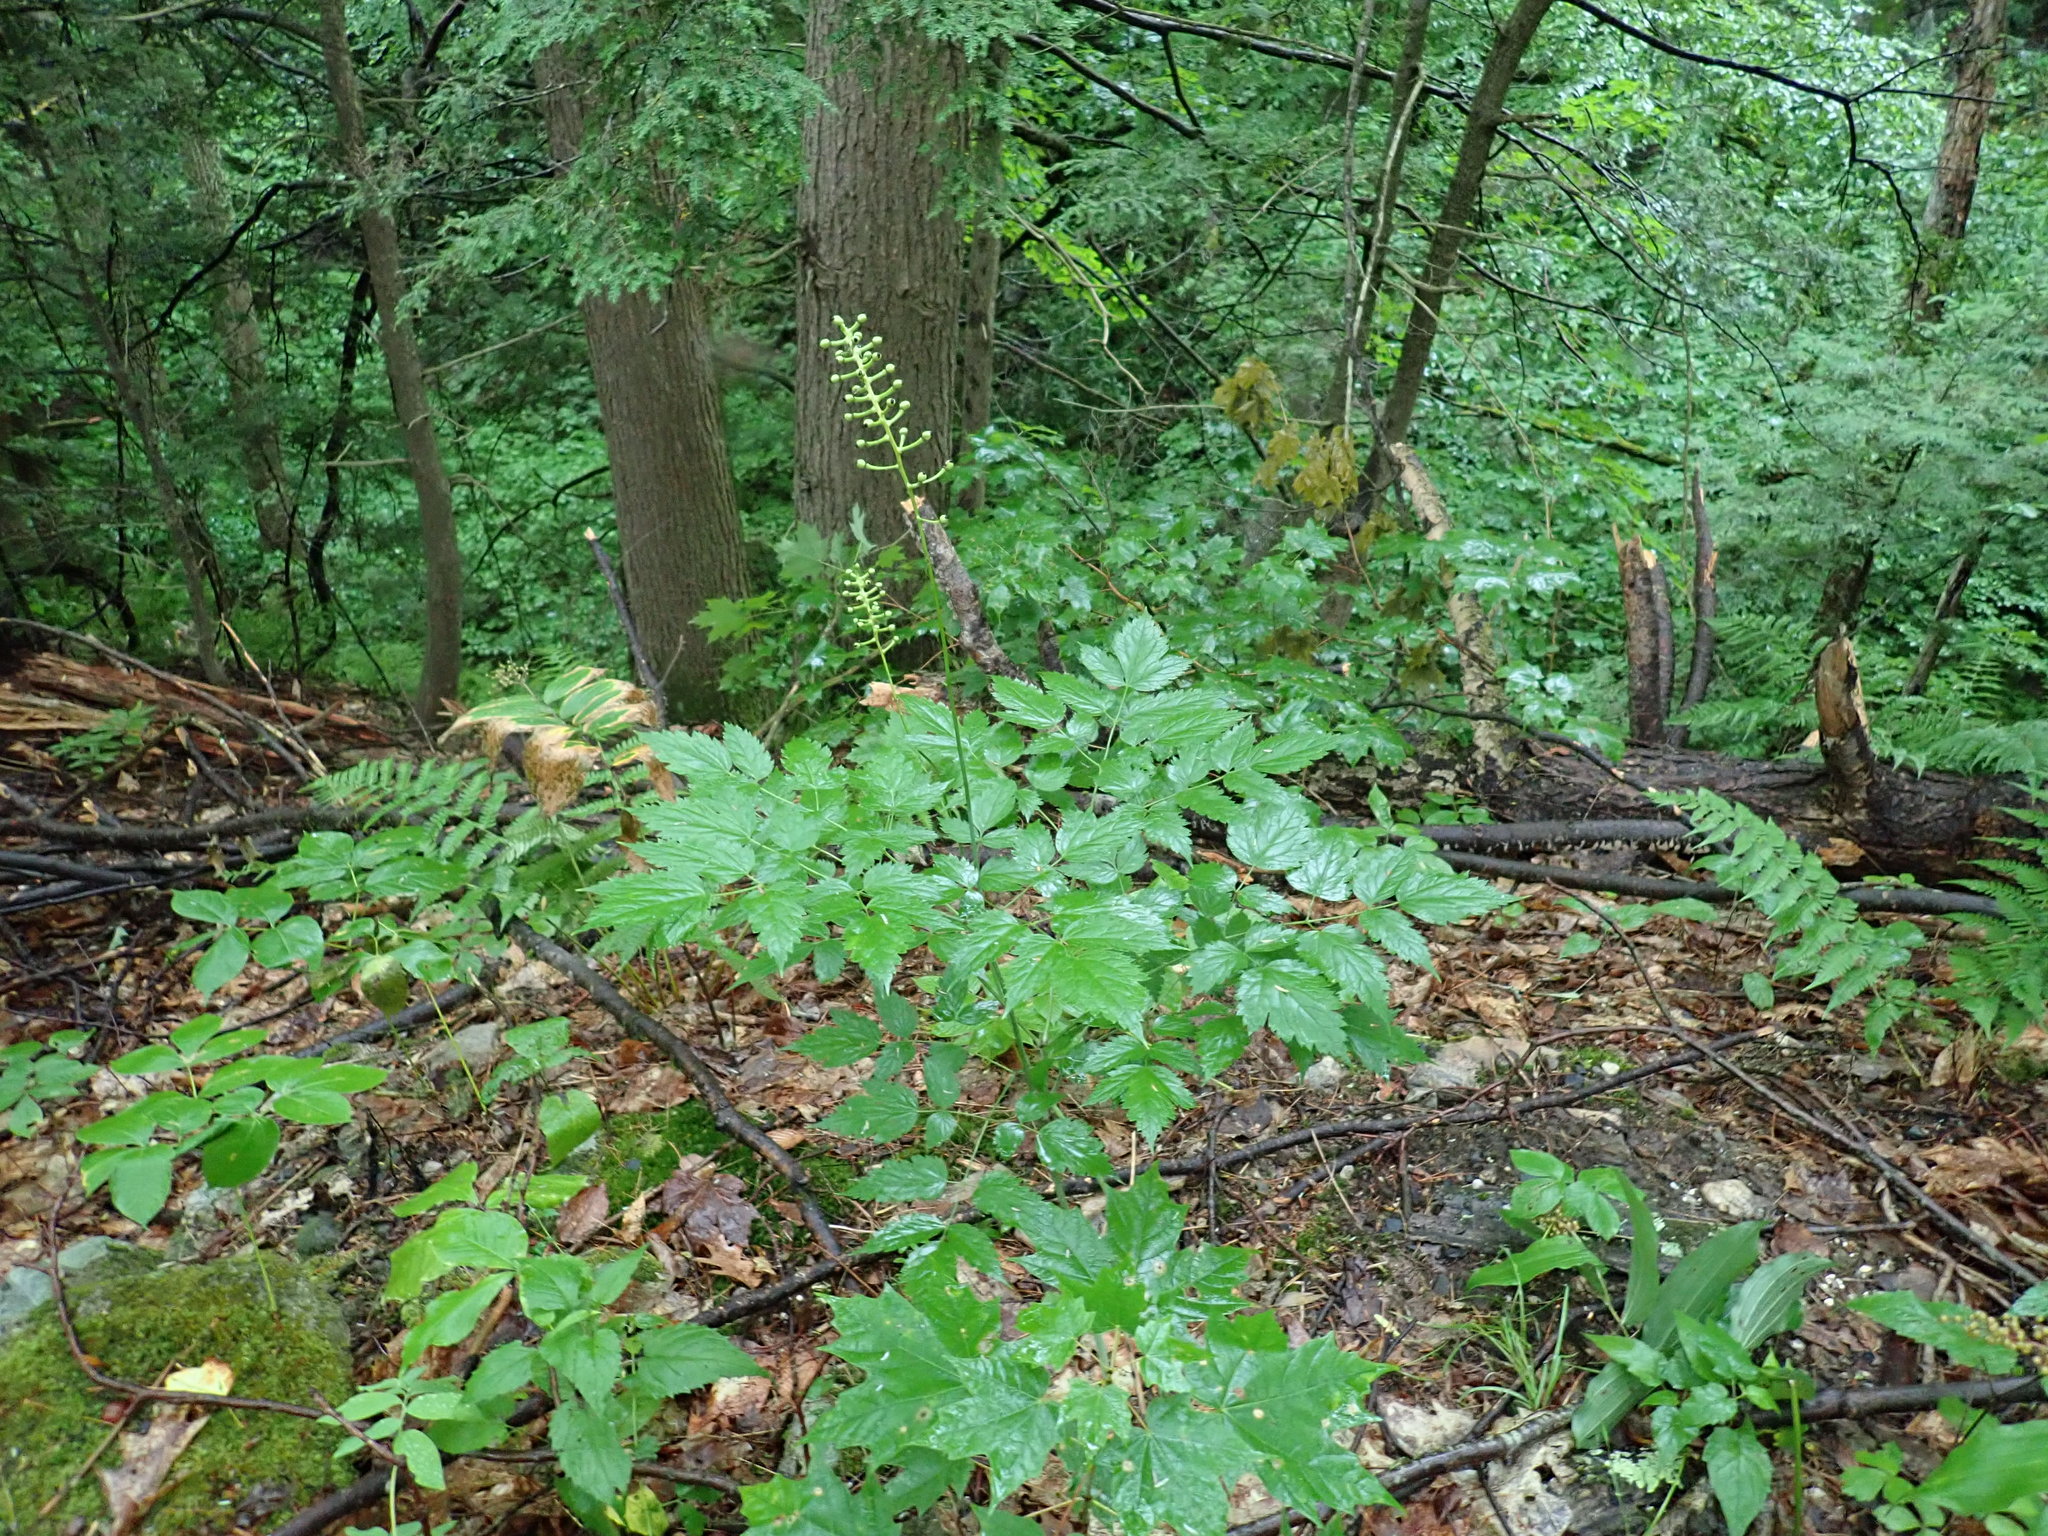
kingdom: Plantae
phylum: Tracheophyta
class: Magnoliopsida
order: Ranunculales
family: Ranunculaceae
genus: Actaea
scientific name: Actaea pachypoda
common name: Doll's-eyes
